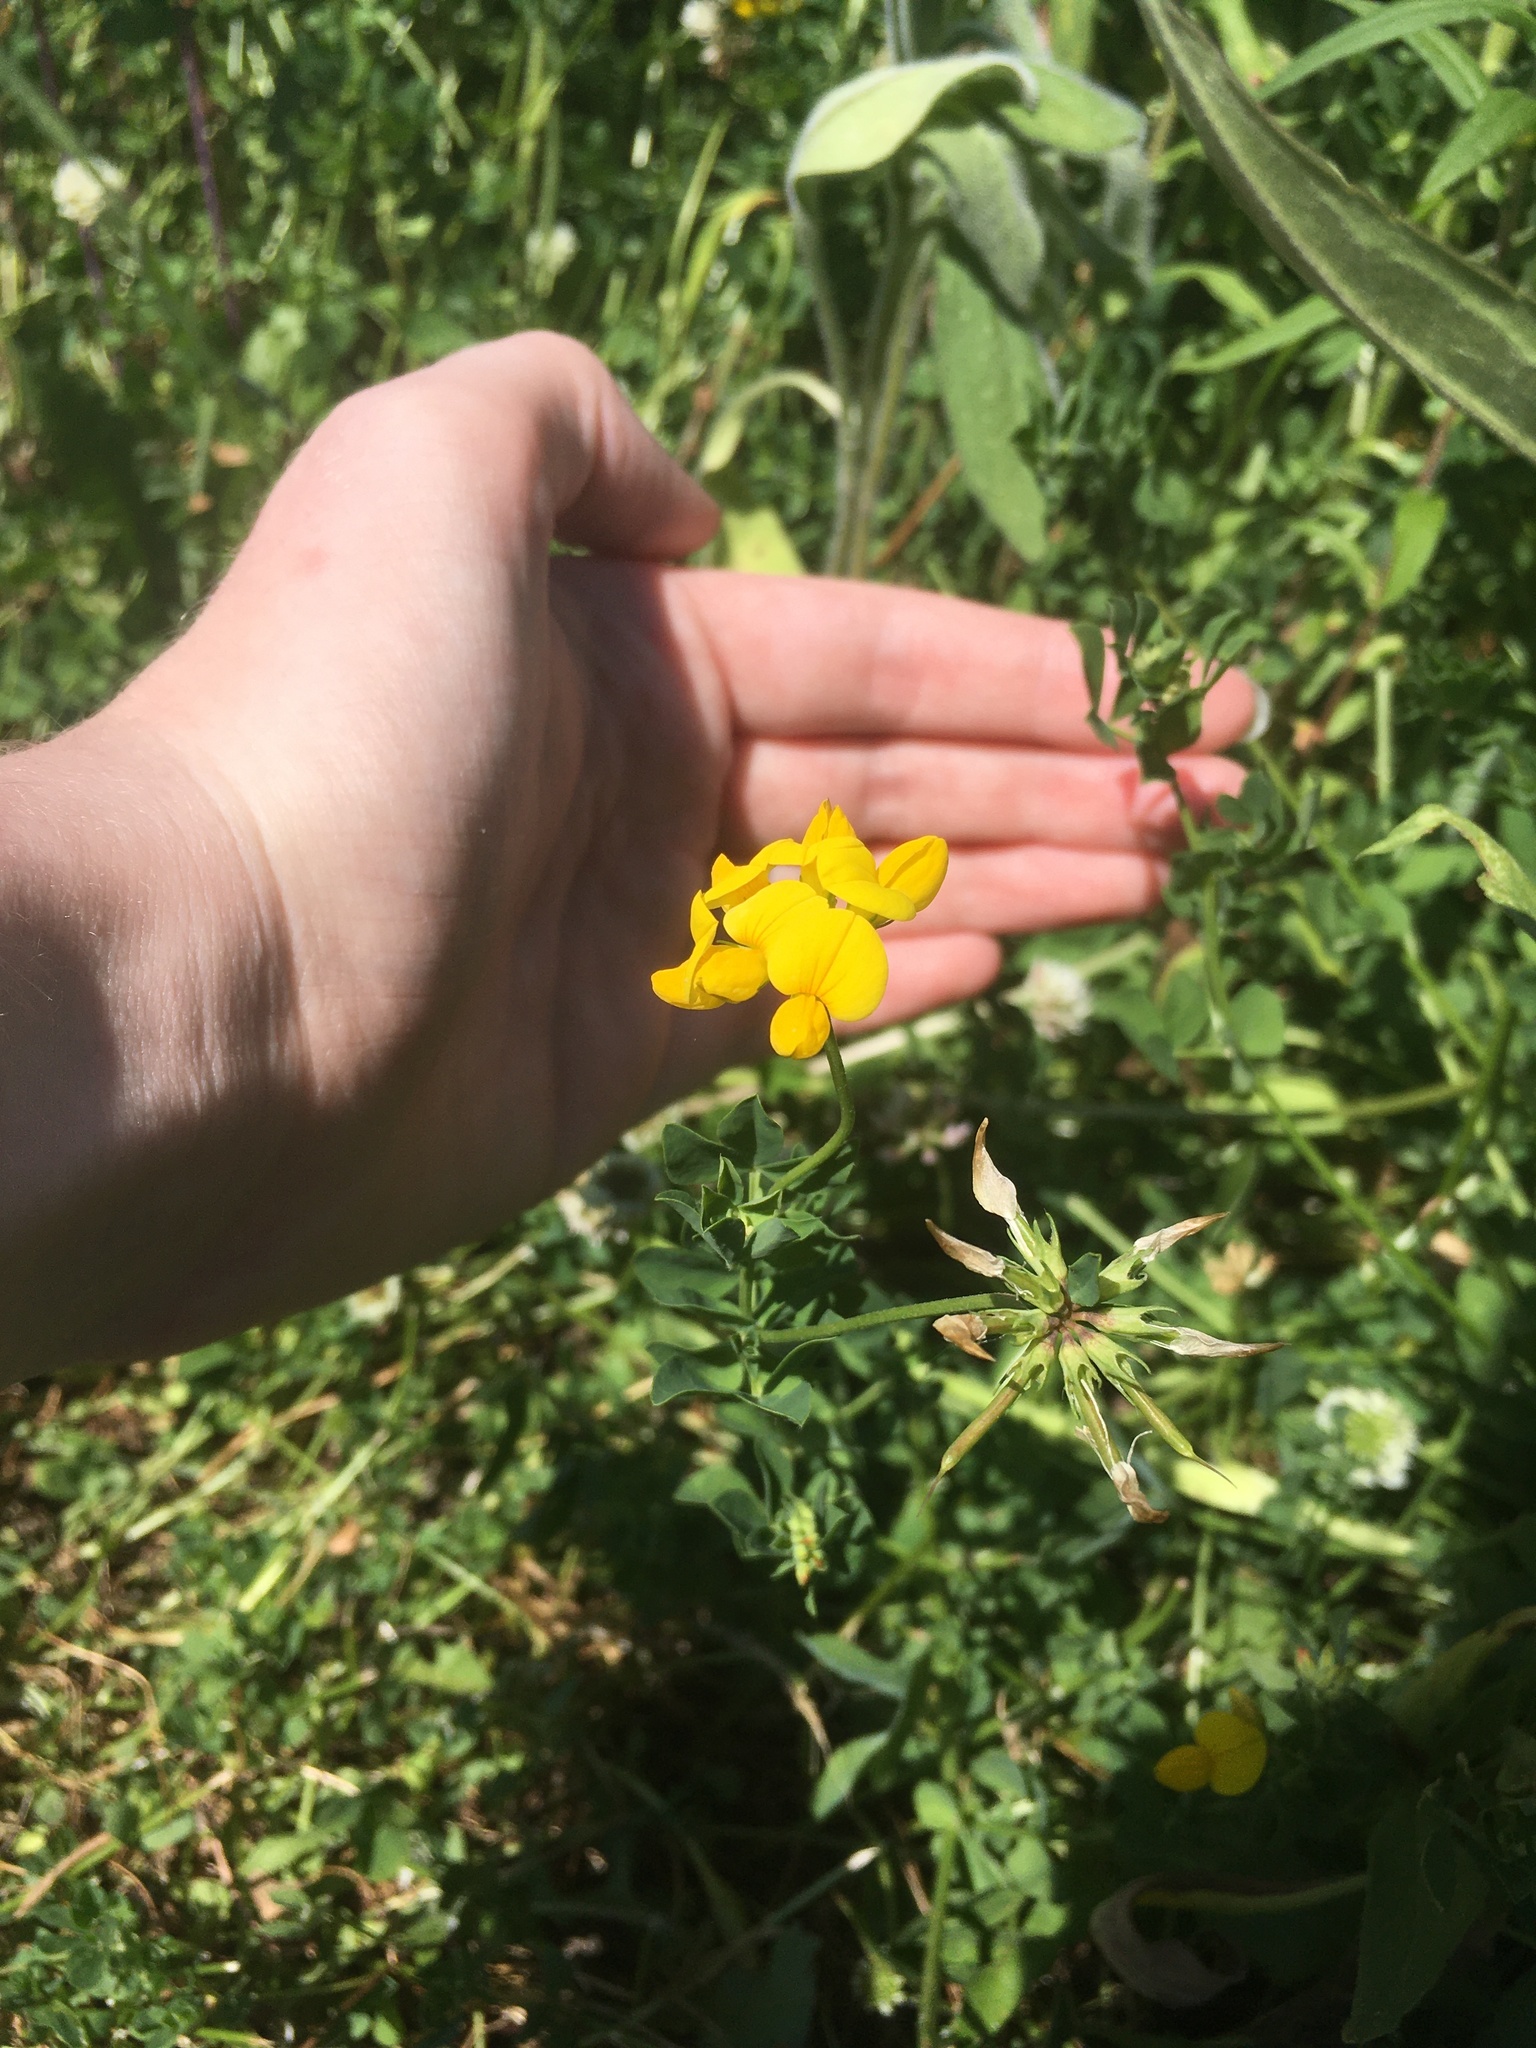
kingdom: Plantae
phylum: Tracheophyta
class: Magnoliopsida
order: Fabales
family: Fabaceae
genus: Lotus
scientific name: Lotus corniculatus
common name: Common bird's-foot-trefoil
